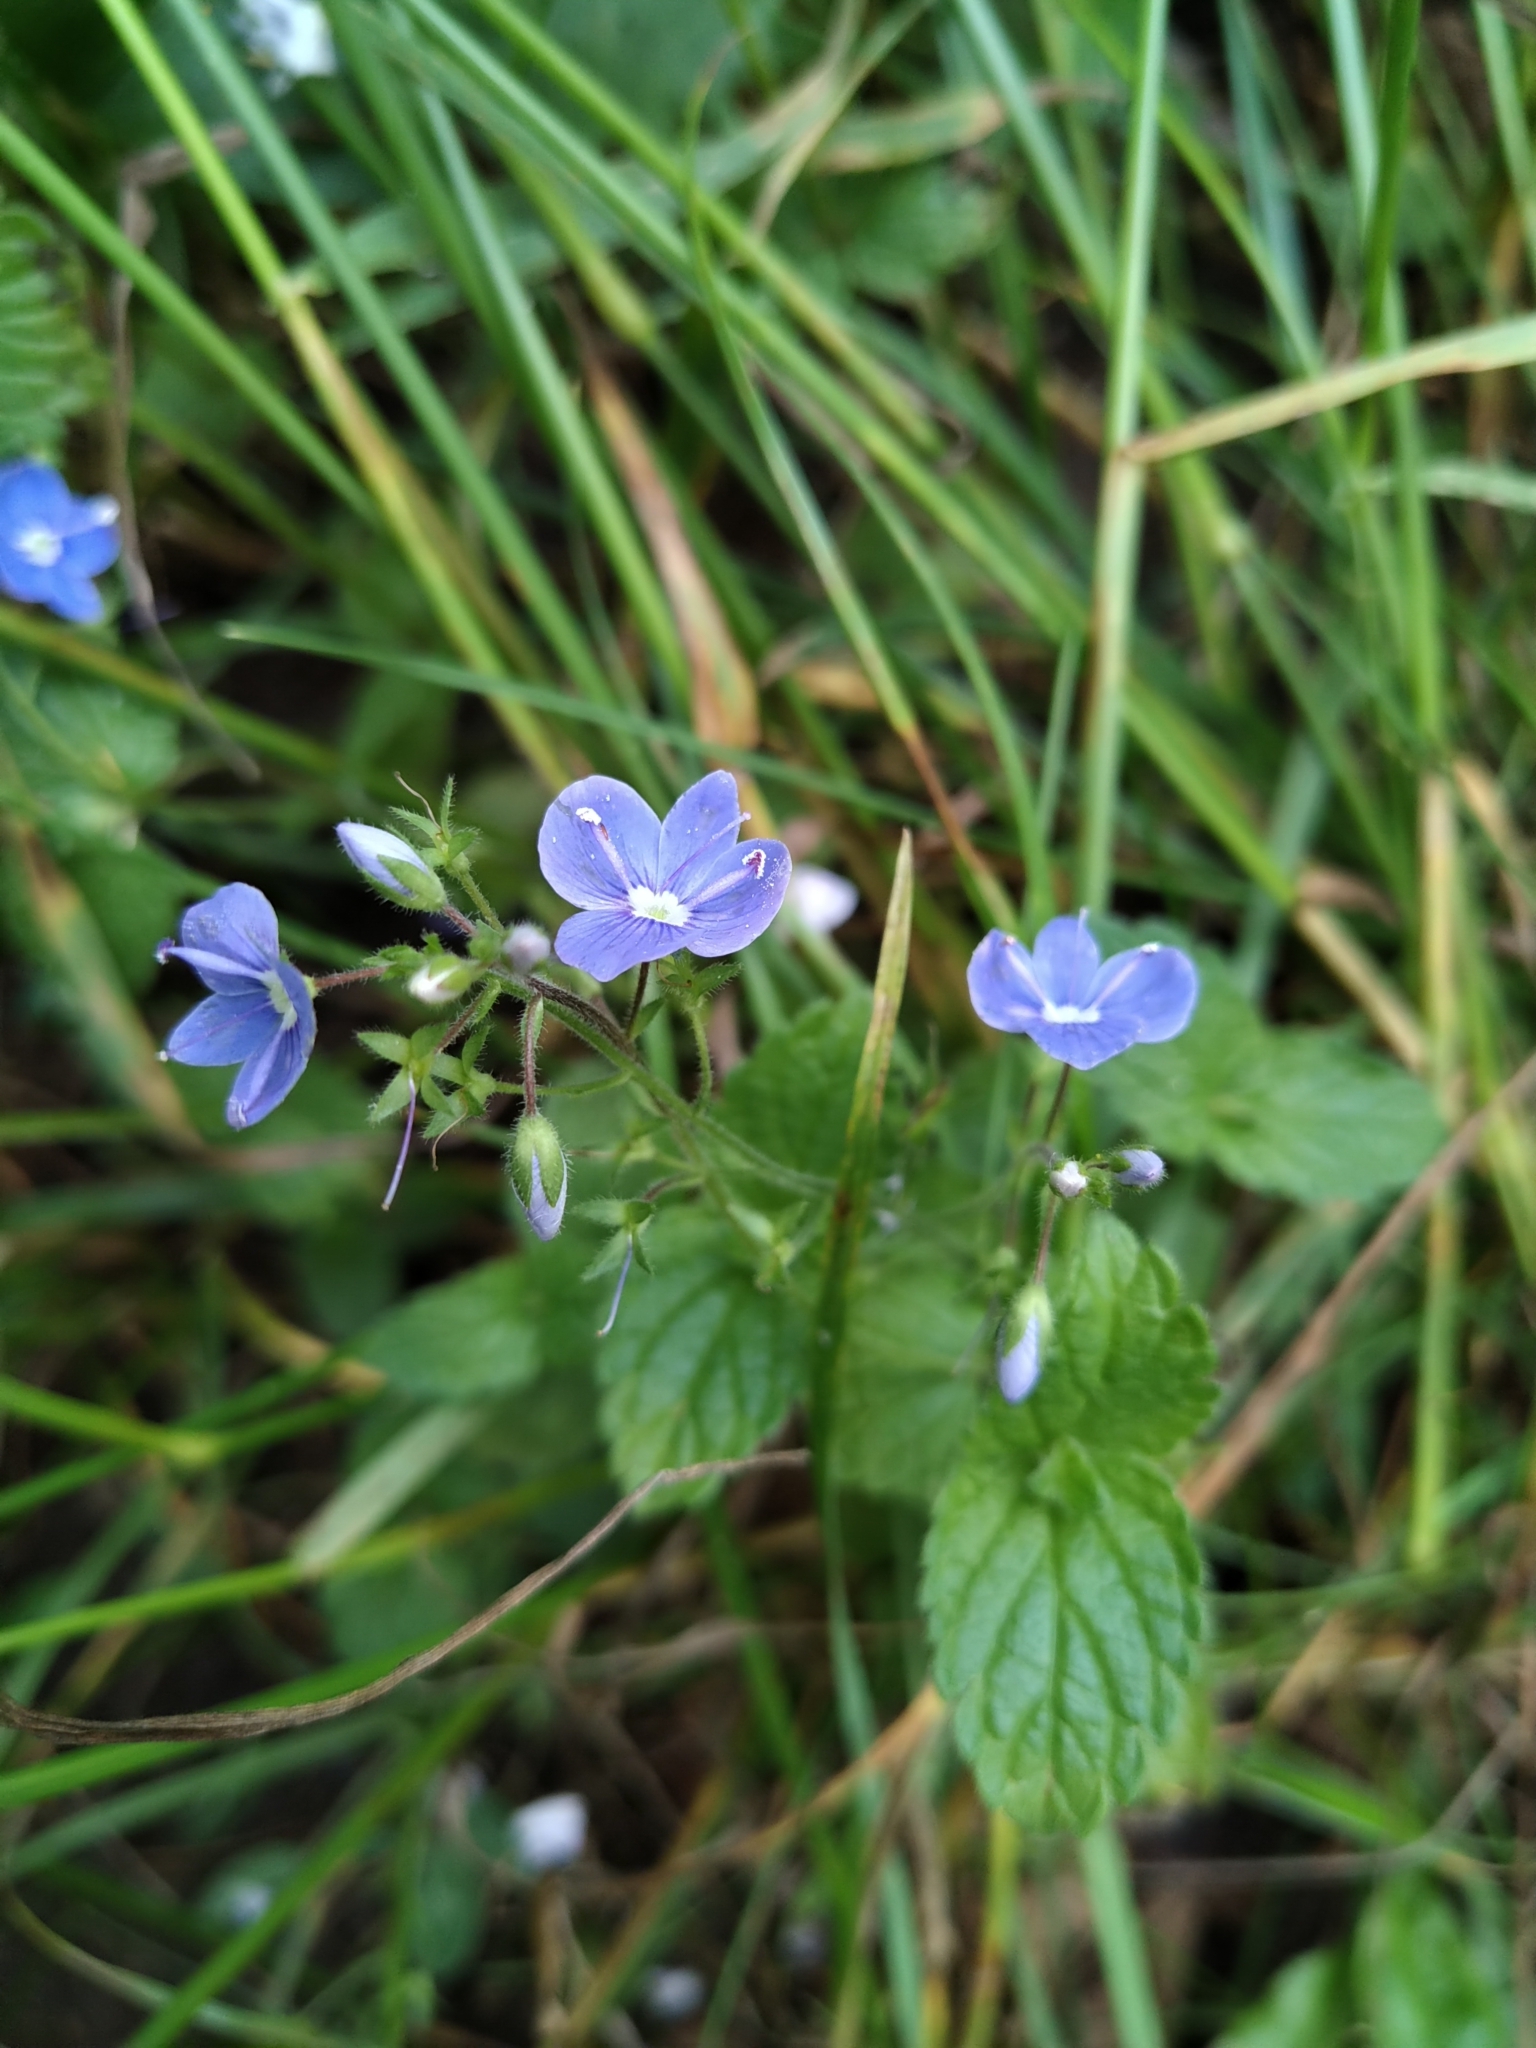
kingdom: Plantae
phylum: Tracheophyta
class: Magnoliopsida
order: Lamiales
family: Plantaginaceae
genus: Veronica
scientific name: Veronica chamaedrys
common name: Germander speedwell
